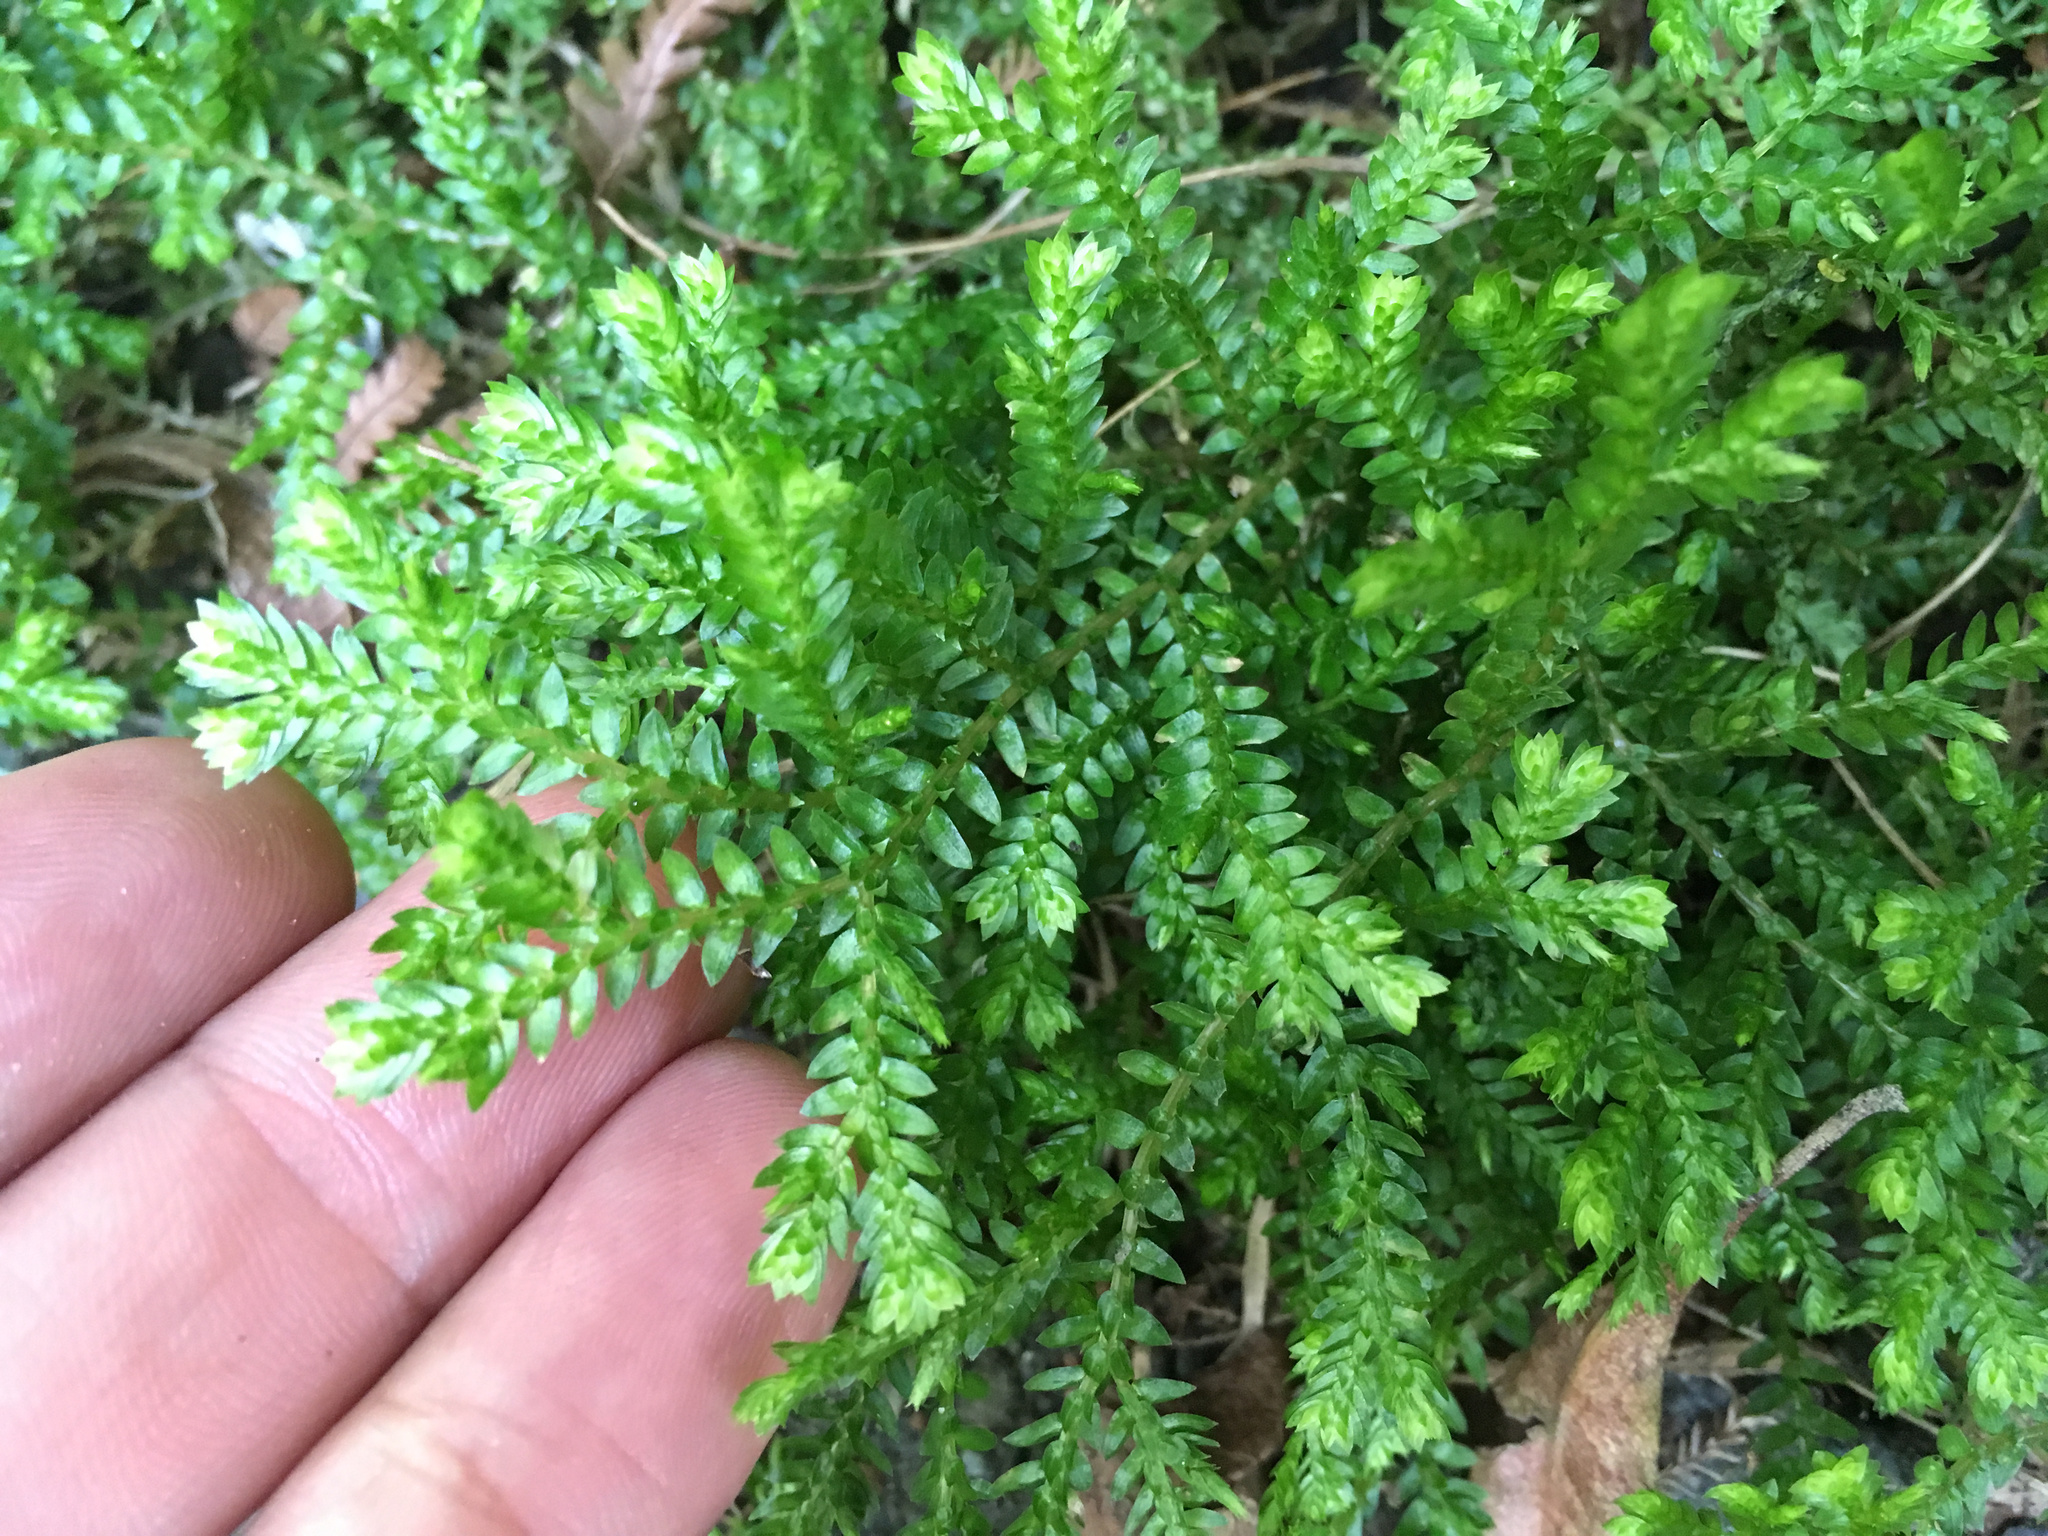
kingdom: Plantae
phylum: Tracheophyta
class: Lycopodiopsida
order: Selaginellales
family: Selaginellaceae
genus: Selaginella
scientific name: Selaginella kraussiana
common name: Krauss' spikemoss
